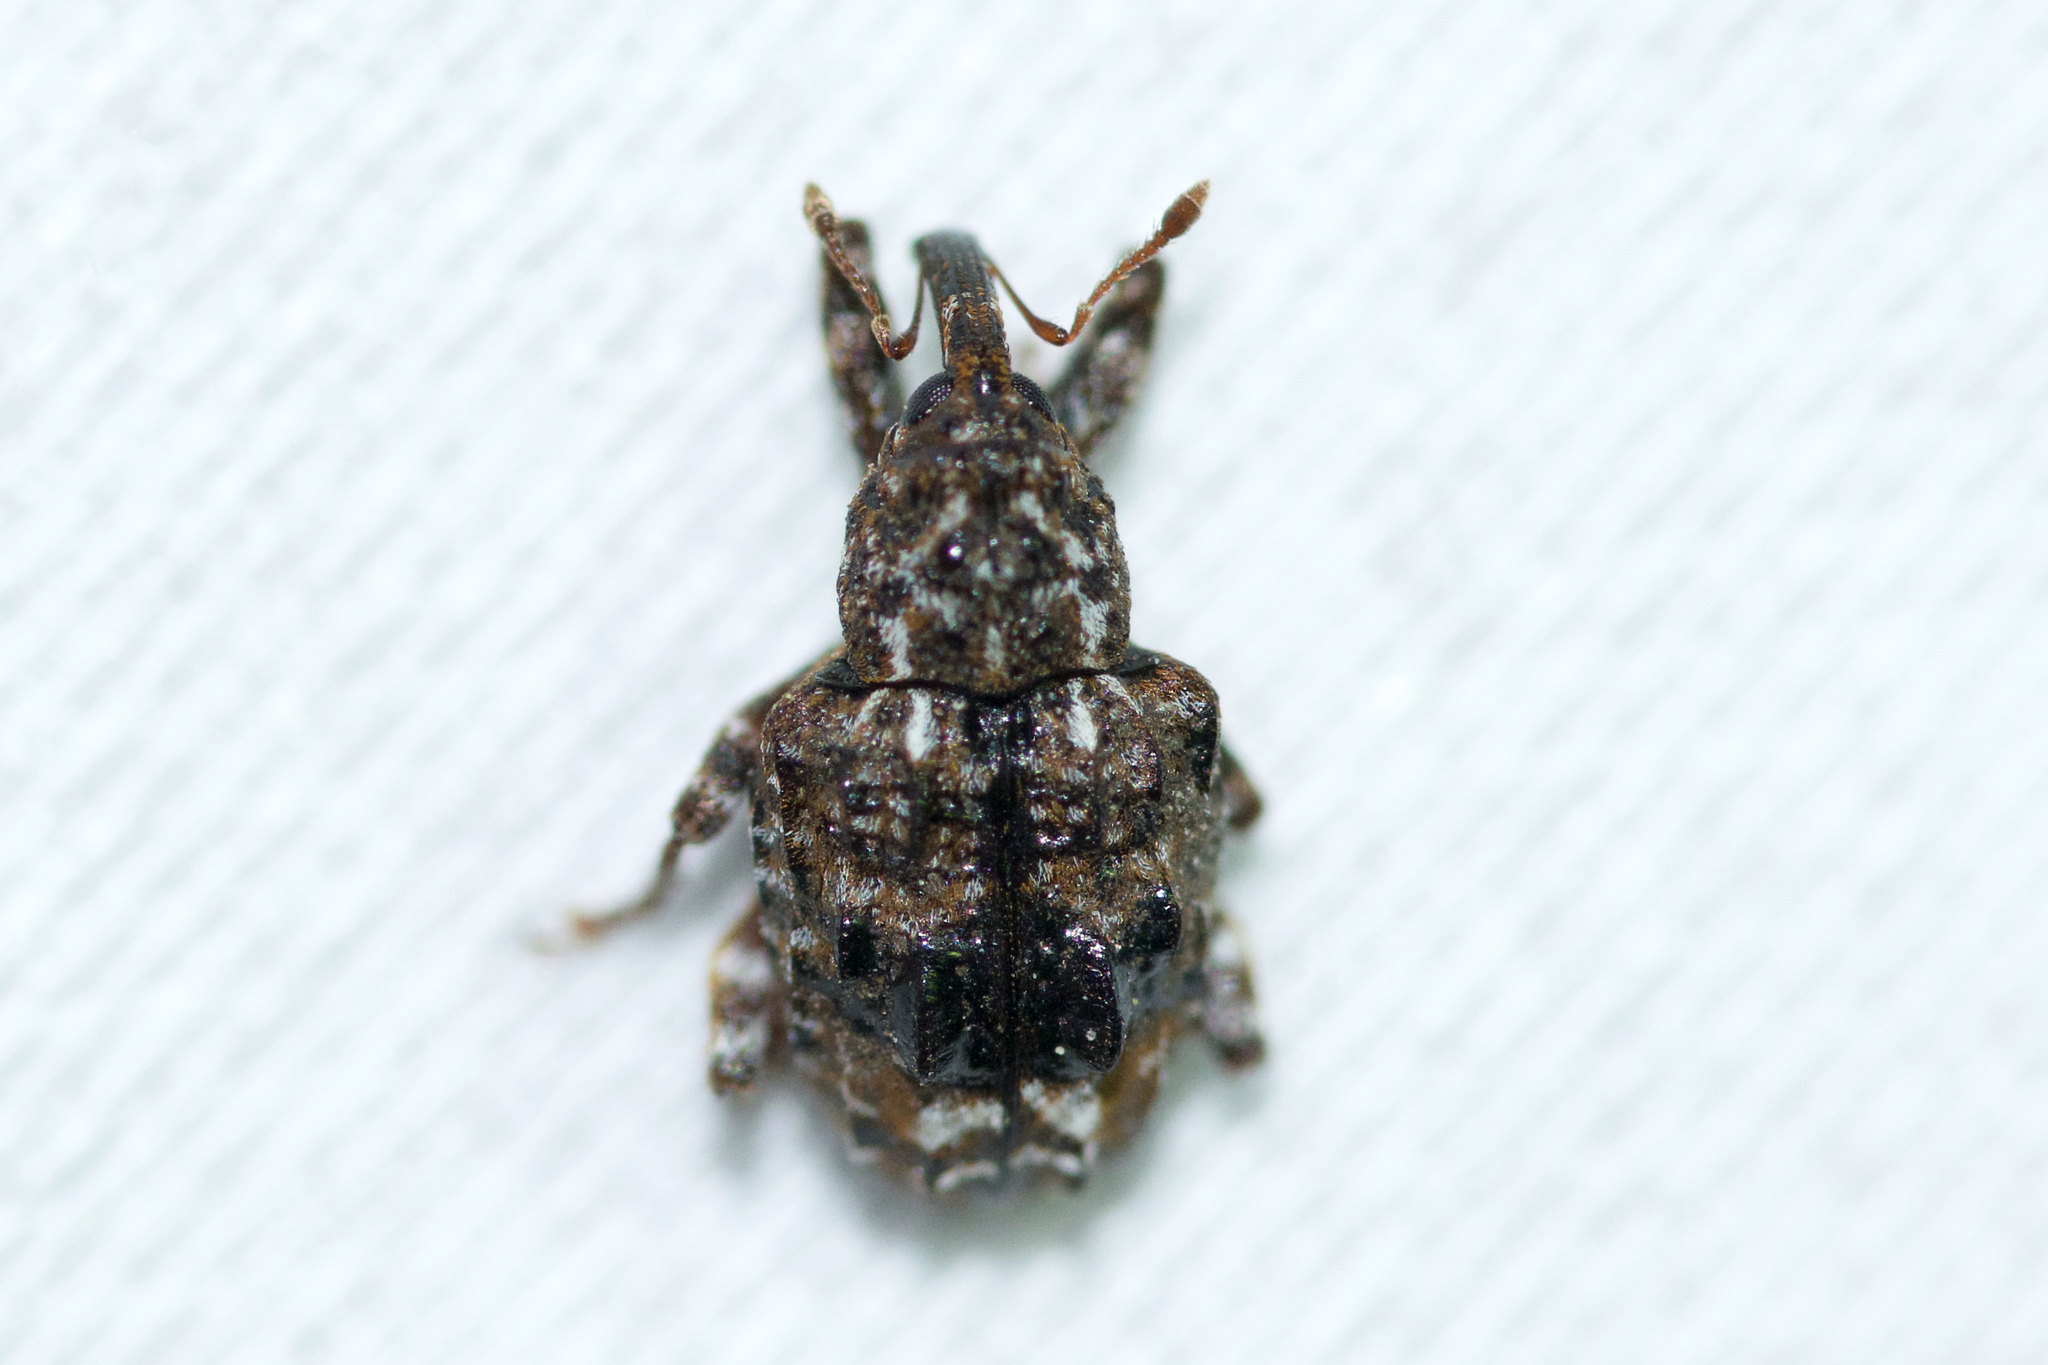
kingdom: Animalia
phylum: Arthropoda
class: Insecta
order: Coleoptera
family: Curculionidae
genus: Conotrachelus
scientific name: Conotrachelus nenuphar
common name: Plum curculio
